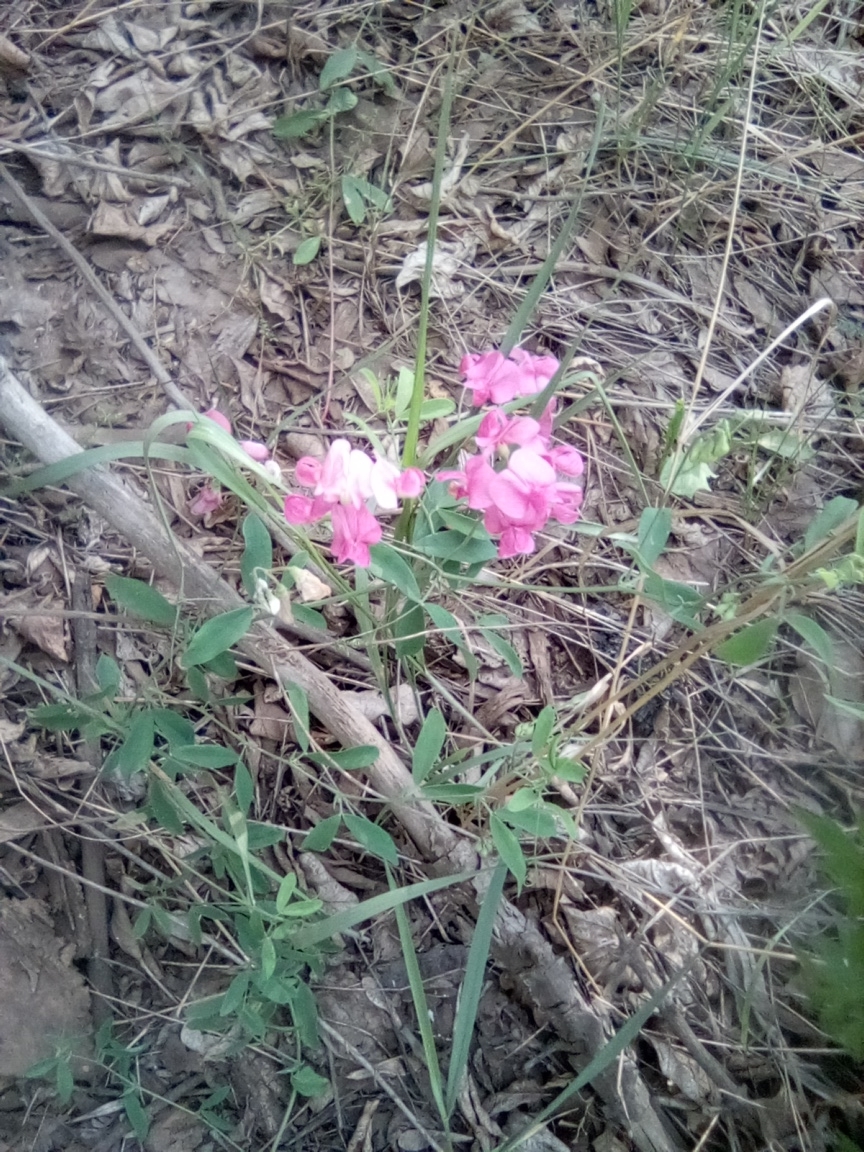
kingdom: Plantae
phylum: Tracheophyta
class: Magnoliopsida
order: Fabales
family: Fabaceae
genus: Lathyrus
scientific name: Lathyrus tuberosus
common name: Tuberous pea
